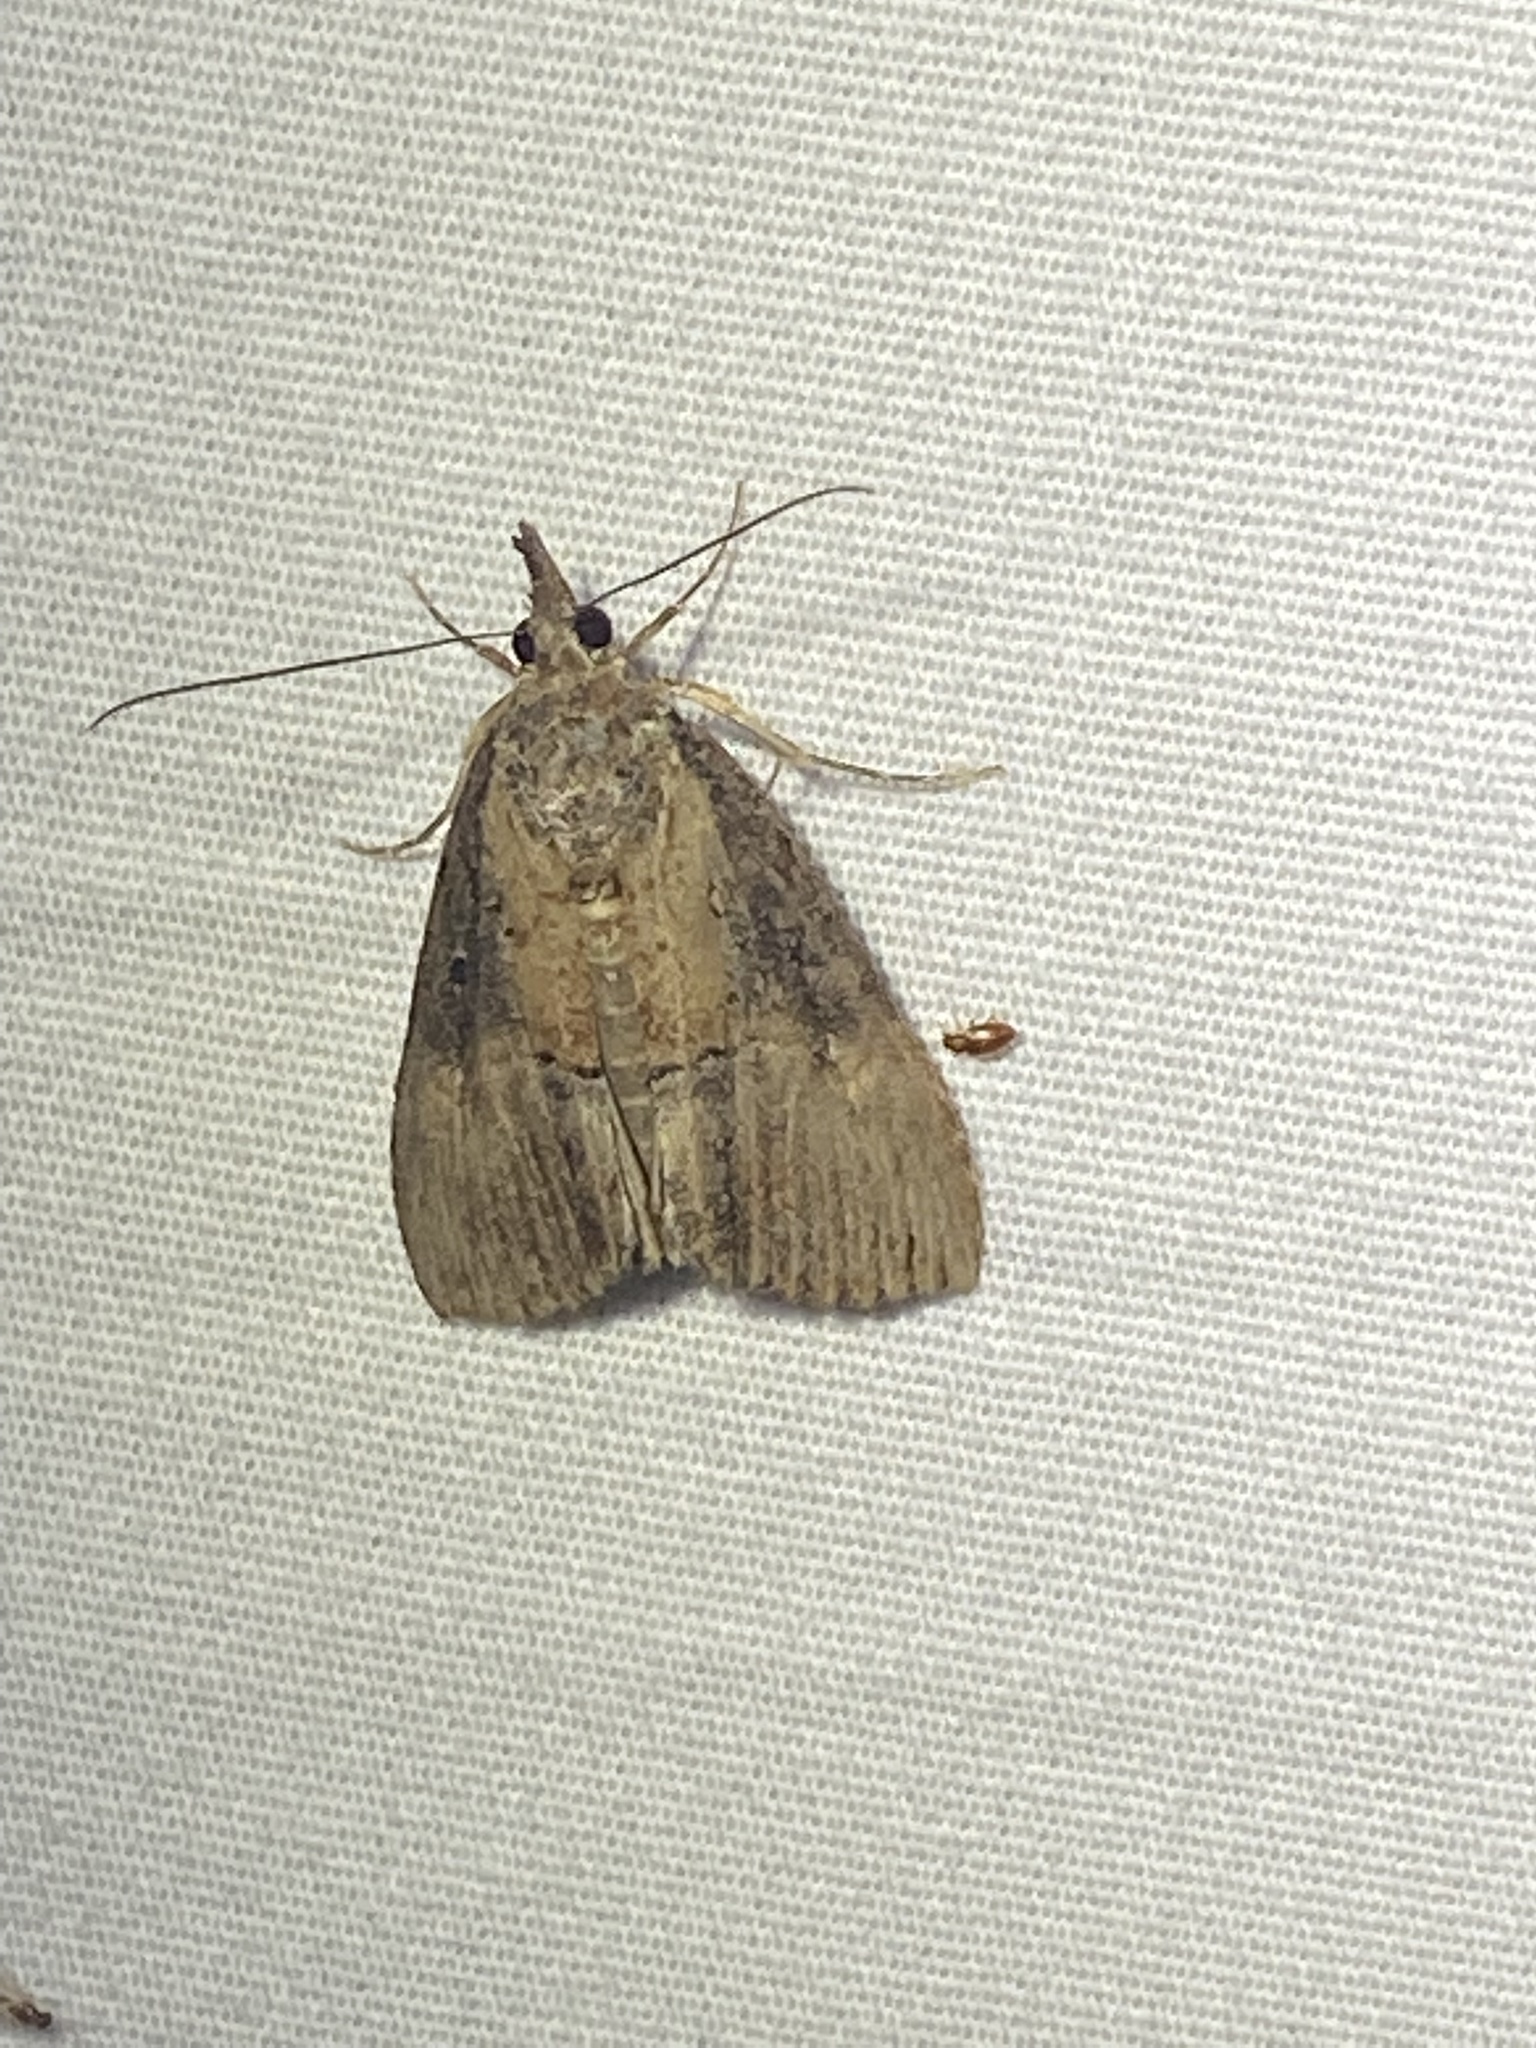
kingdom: Animalia
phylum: Arthropoda
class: Insecta
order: Lepidoptera
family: Erebidae
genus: Hypena
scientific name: Hypena scabra
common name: Green cloverworm
